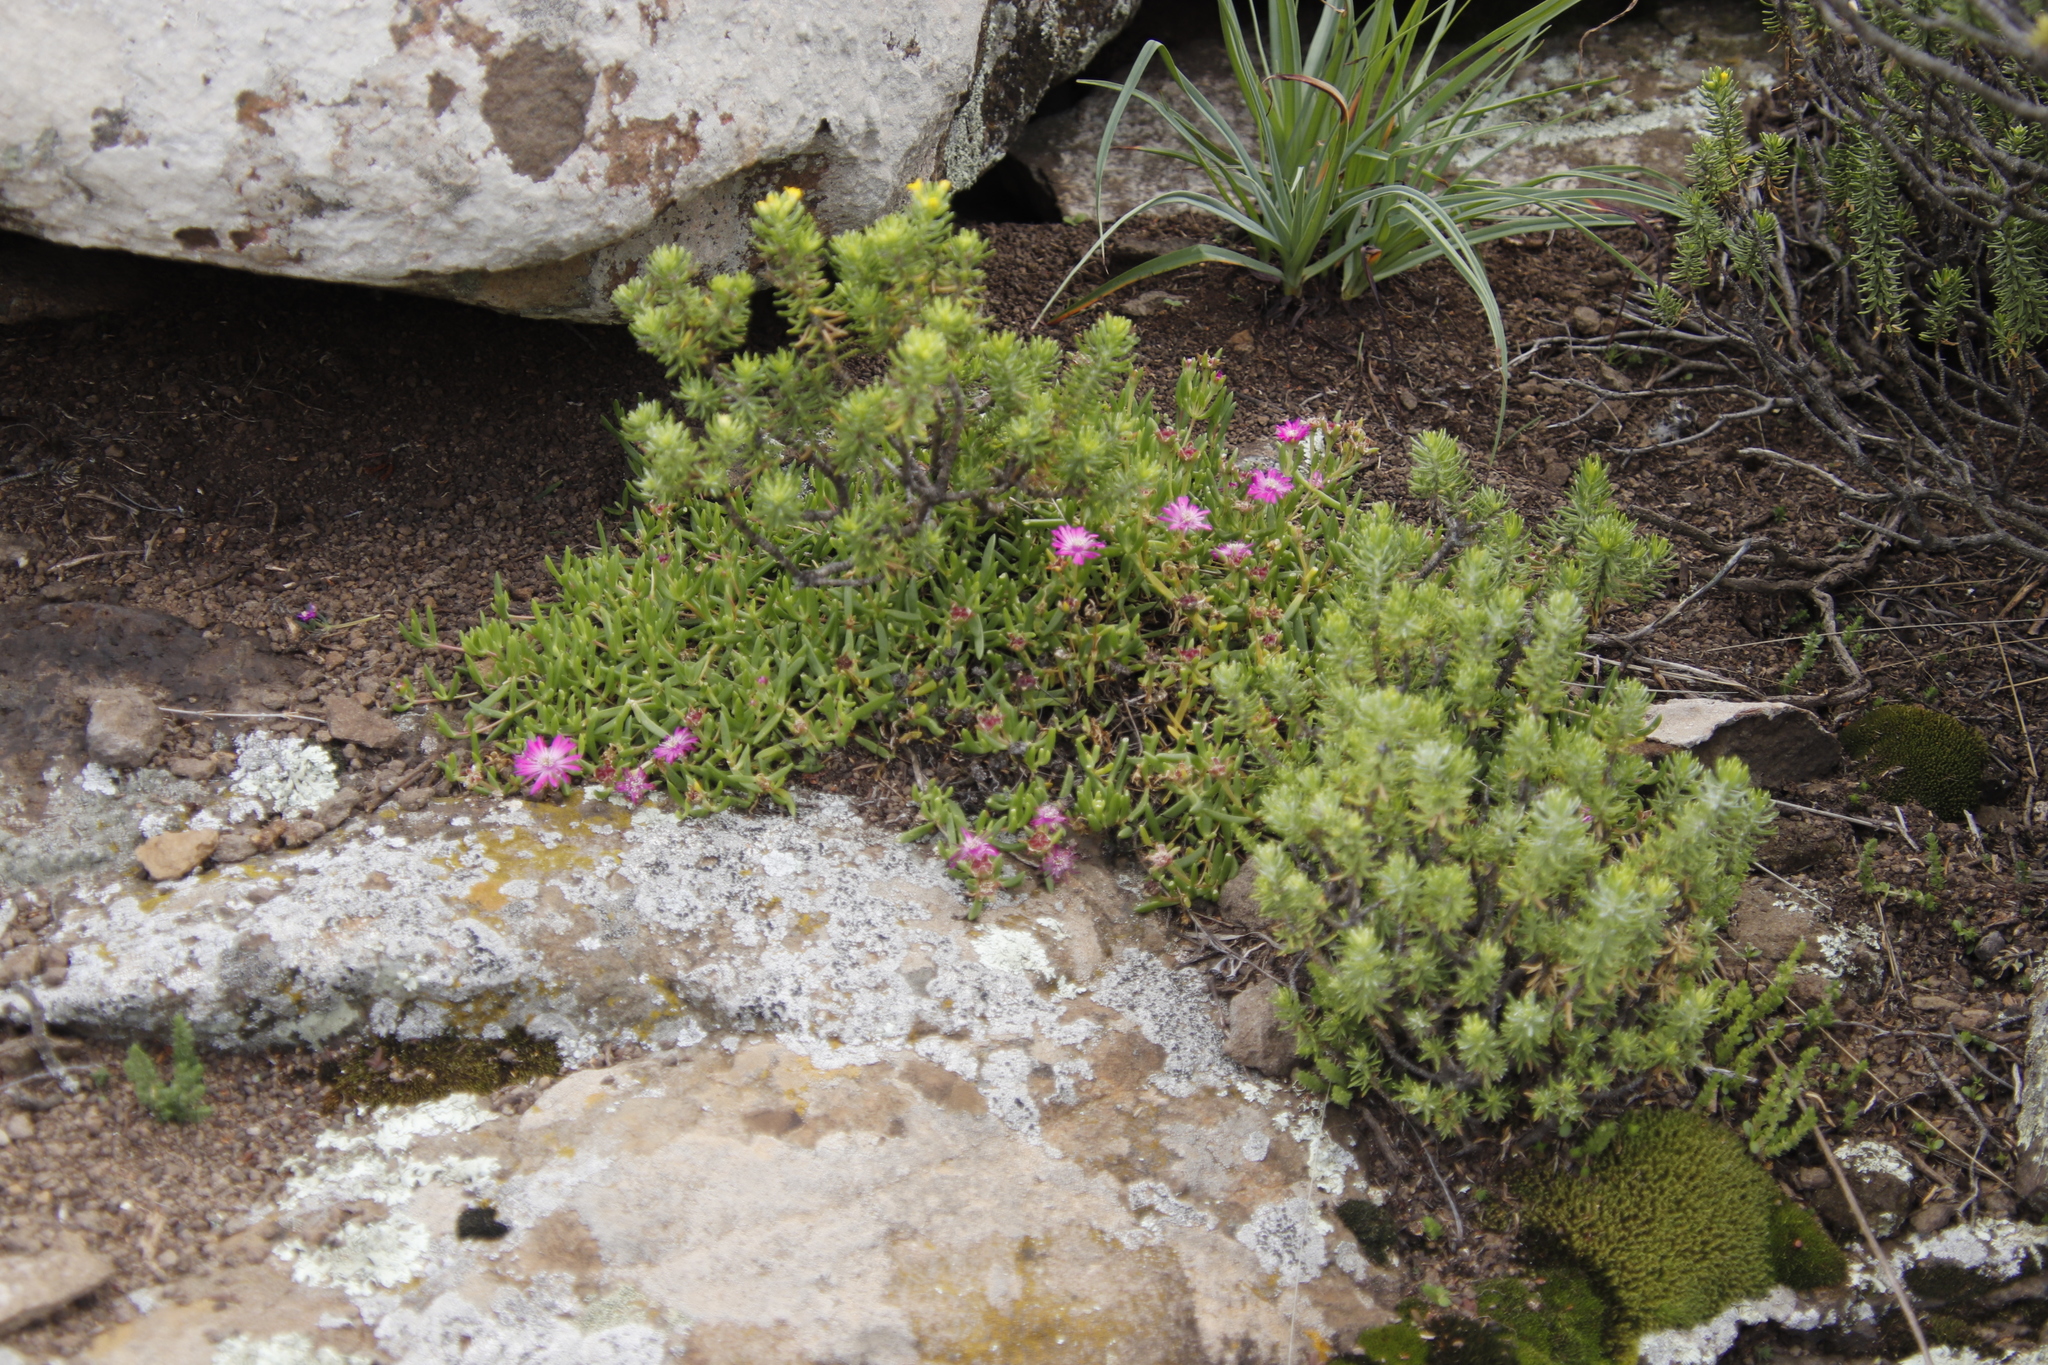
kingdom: Plantae
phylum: Tracheophyta
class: Magnoliopsida
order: Caryophyllales
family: Aizoaceae
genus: Delosperma
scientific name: Delosperma lavisiae
